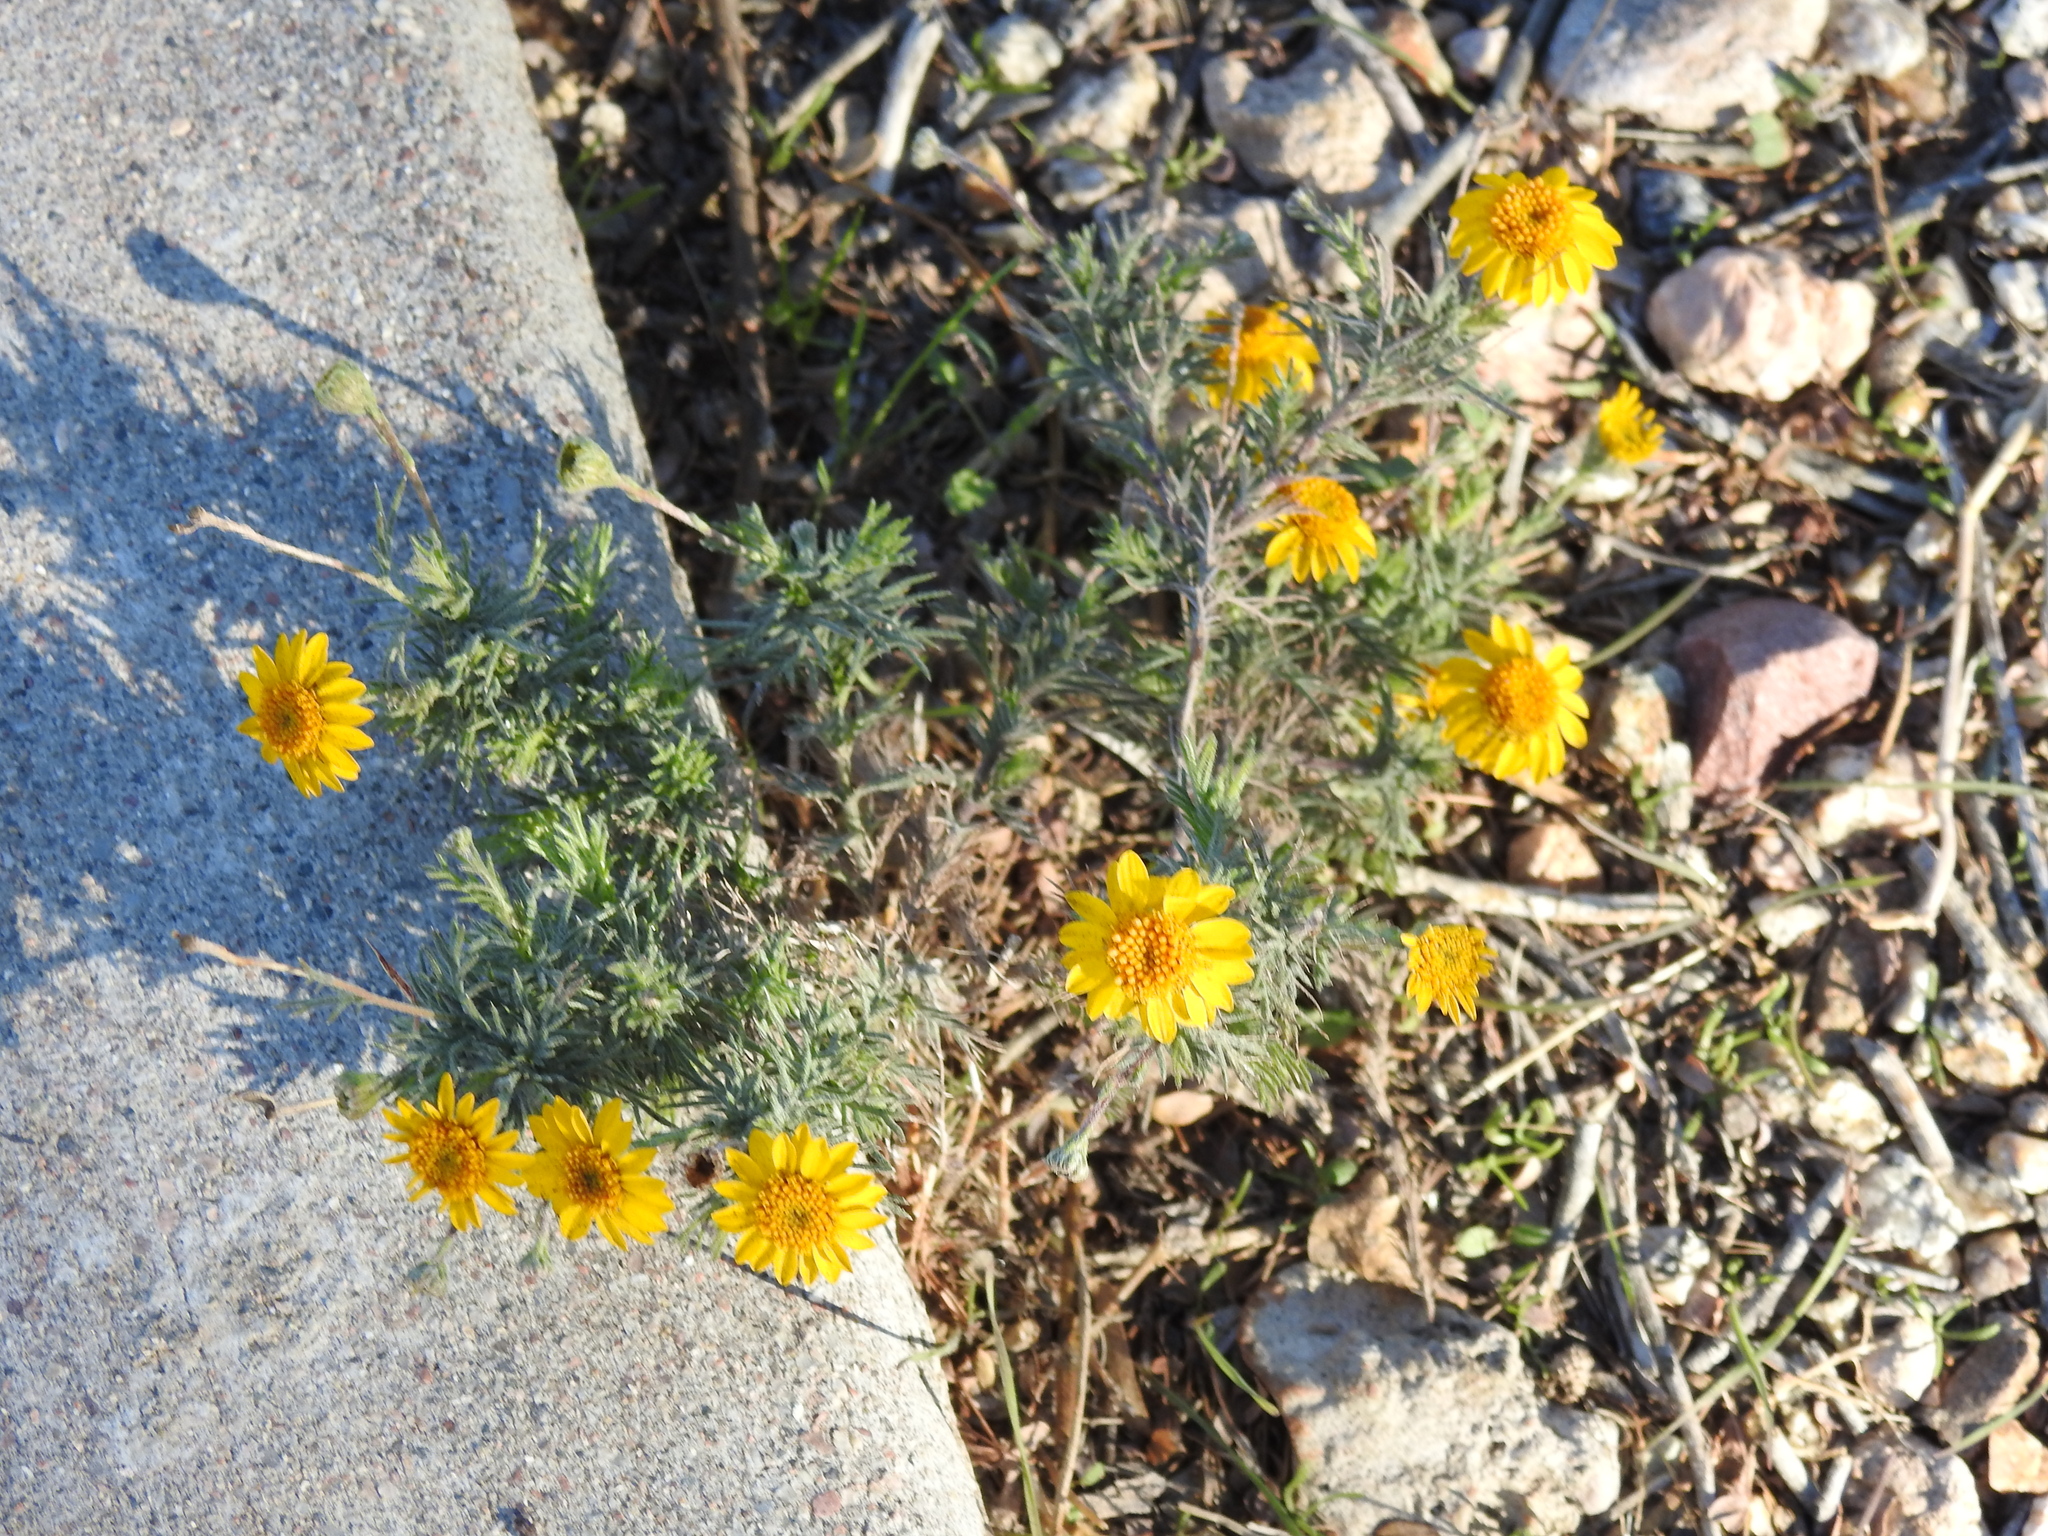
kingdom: Plantae
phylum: Tracheophyta
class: Magnoliopsida
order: Asterales
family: Asteraceae
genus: Thymophylla
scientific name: Thymophylla pentachaeta
